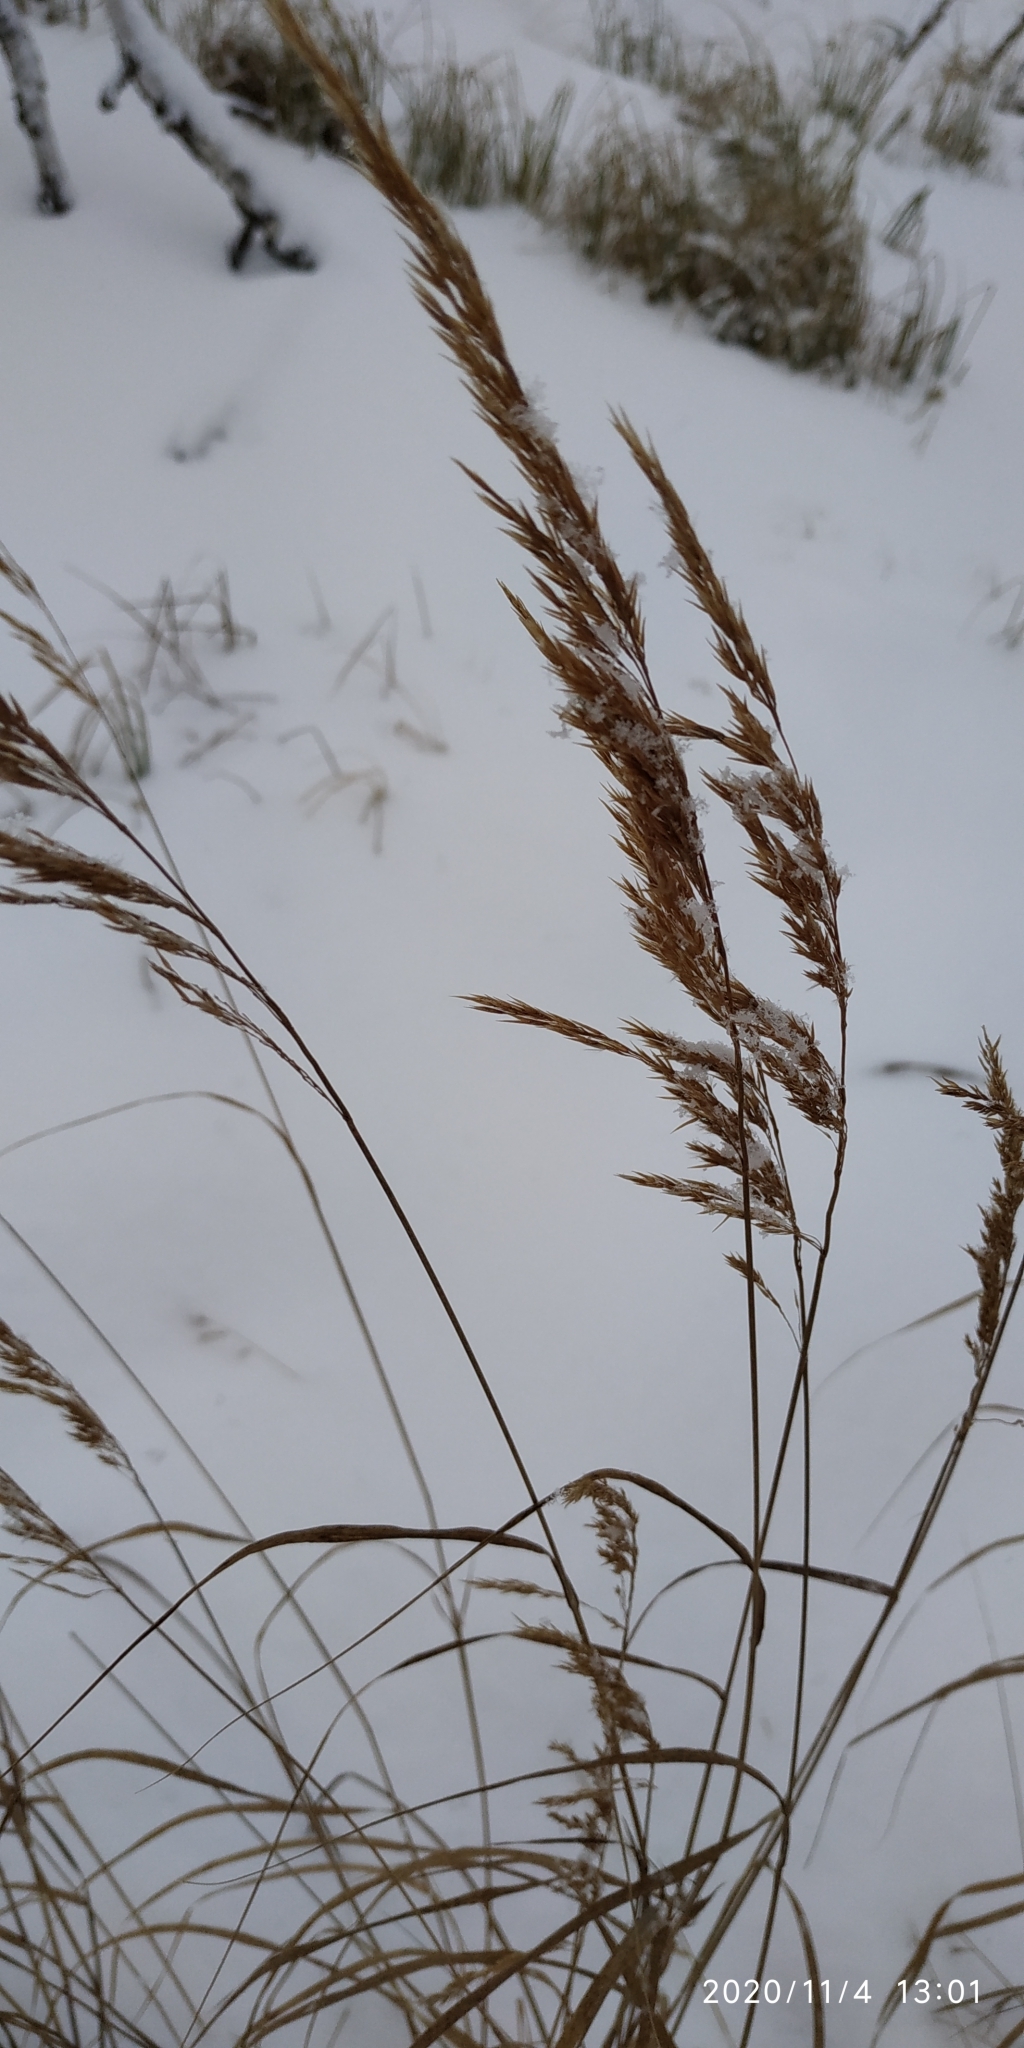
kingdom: Plantae
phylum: Tracheophyta
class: Liliopsida
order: Poales
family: Poaceae
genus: Calamagrostis
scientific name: Calamagrostis purpurea
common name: Scandinavian small-reed
